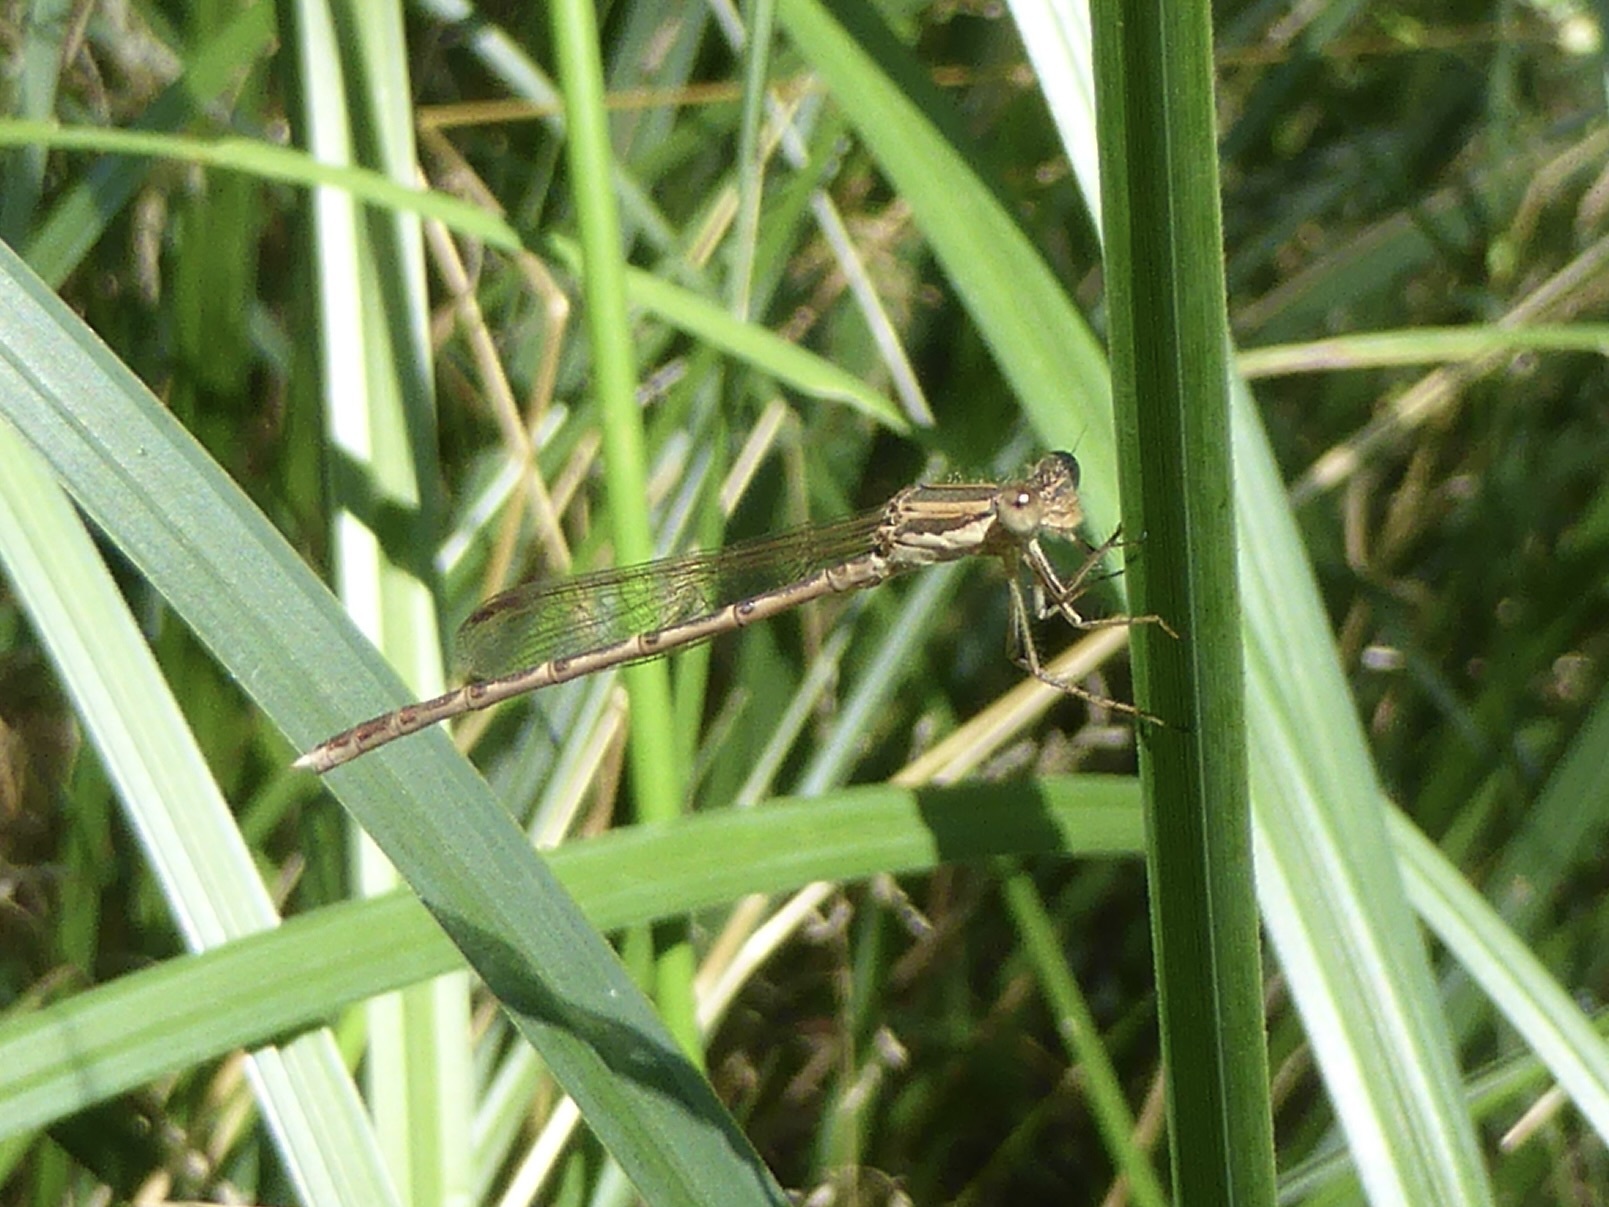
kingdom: Animalia
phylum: Arthropoda
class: Insecta
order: Odonata
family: Lestidae
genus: Sympecma
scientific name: Sympecma fusca
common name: Common winter damsel
